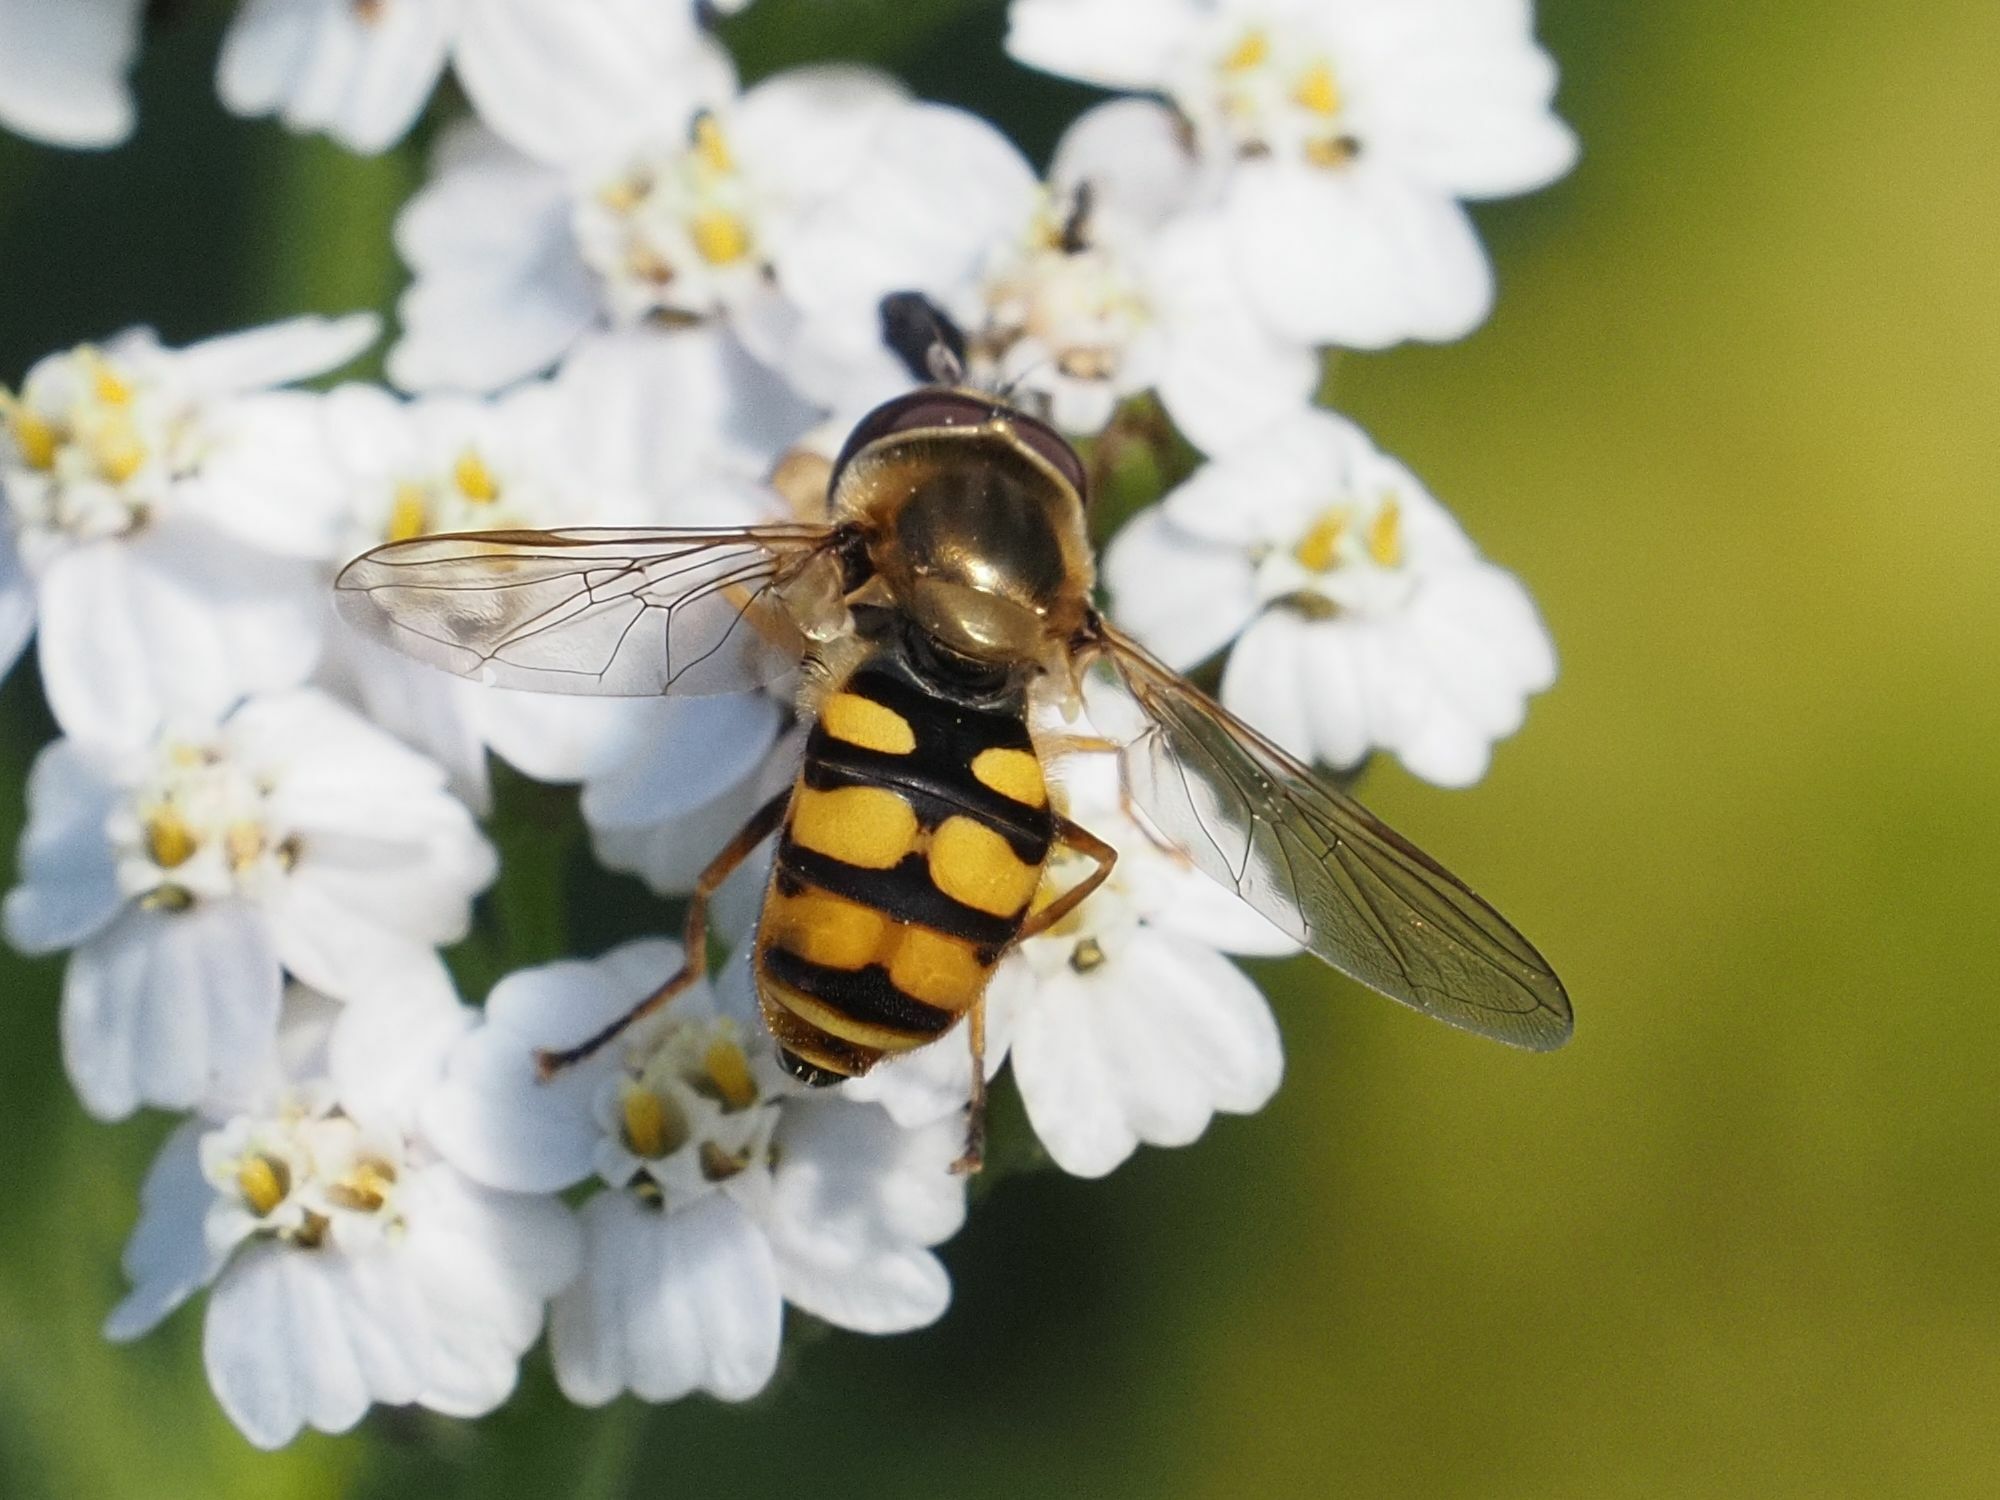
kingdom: Animalia
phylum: Arthropoda
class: Insecta
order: Diptera
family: Syrphidae
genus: Eupeodes
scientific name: Eupeodes corollae
